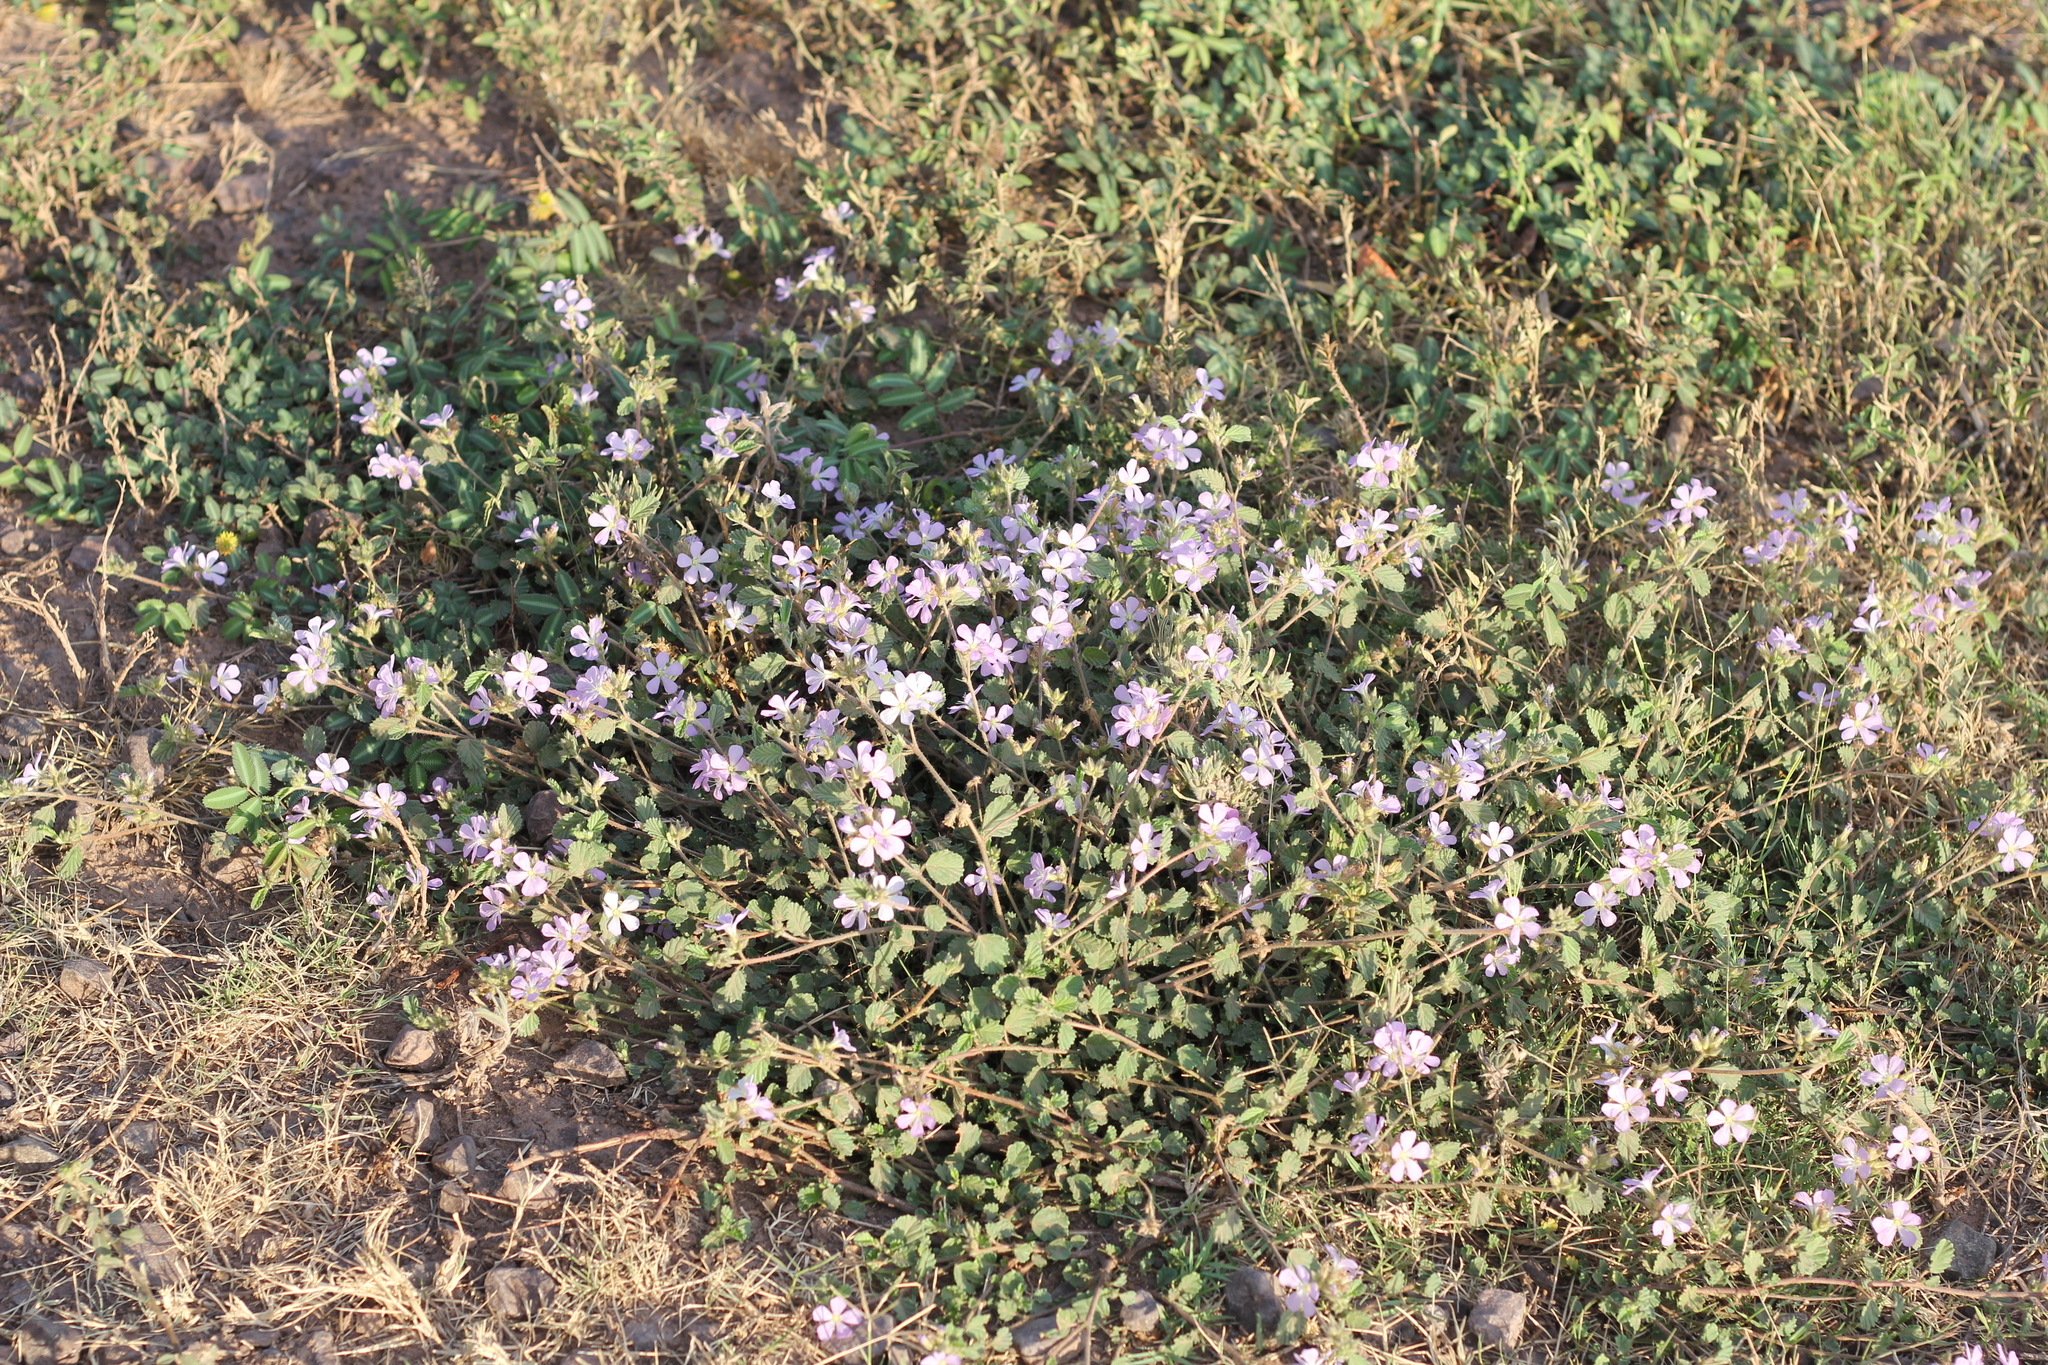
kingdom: Plantae
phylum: Tracheophyta
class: Magnoliopsida
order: Malvales
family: Malvaceae
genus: Melochia
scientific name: Melochia hermannioides
